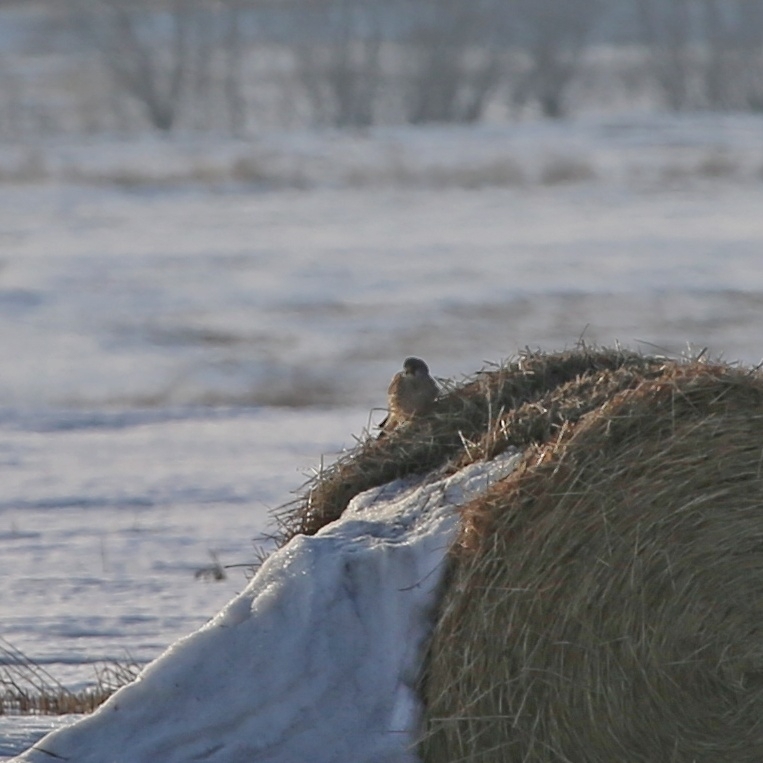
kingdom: Animalia
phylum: Chordata
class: Aves
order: Falconiformes
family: Falconidae
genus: Falco
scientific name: Falco tinnunculus
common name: Common kestrel
